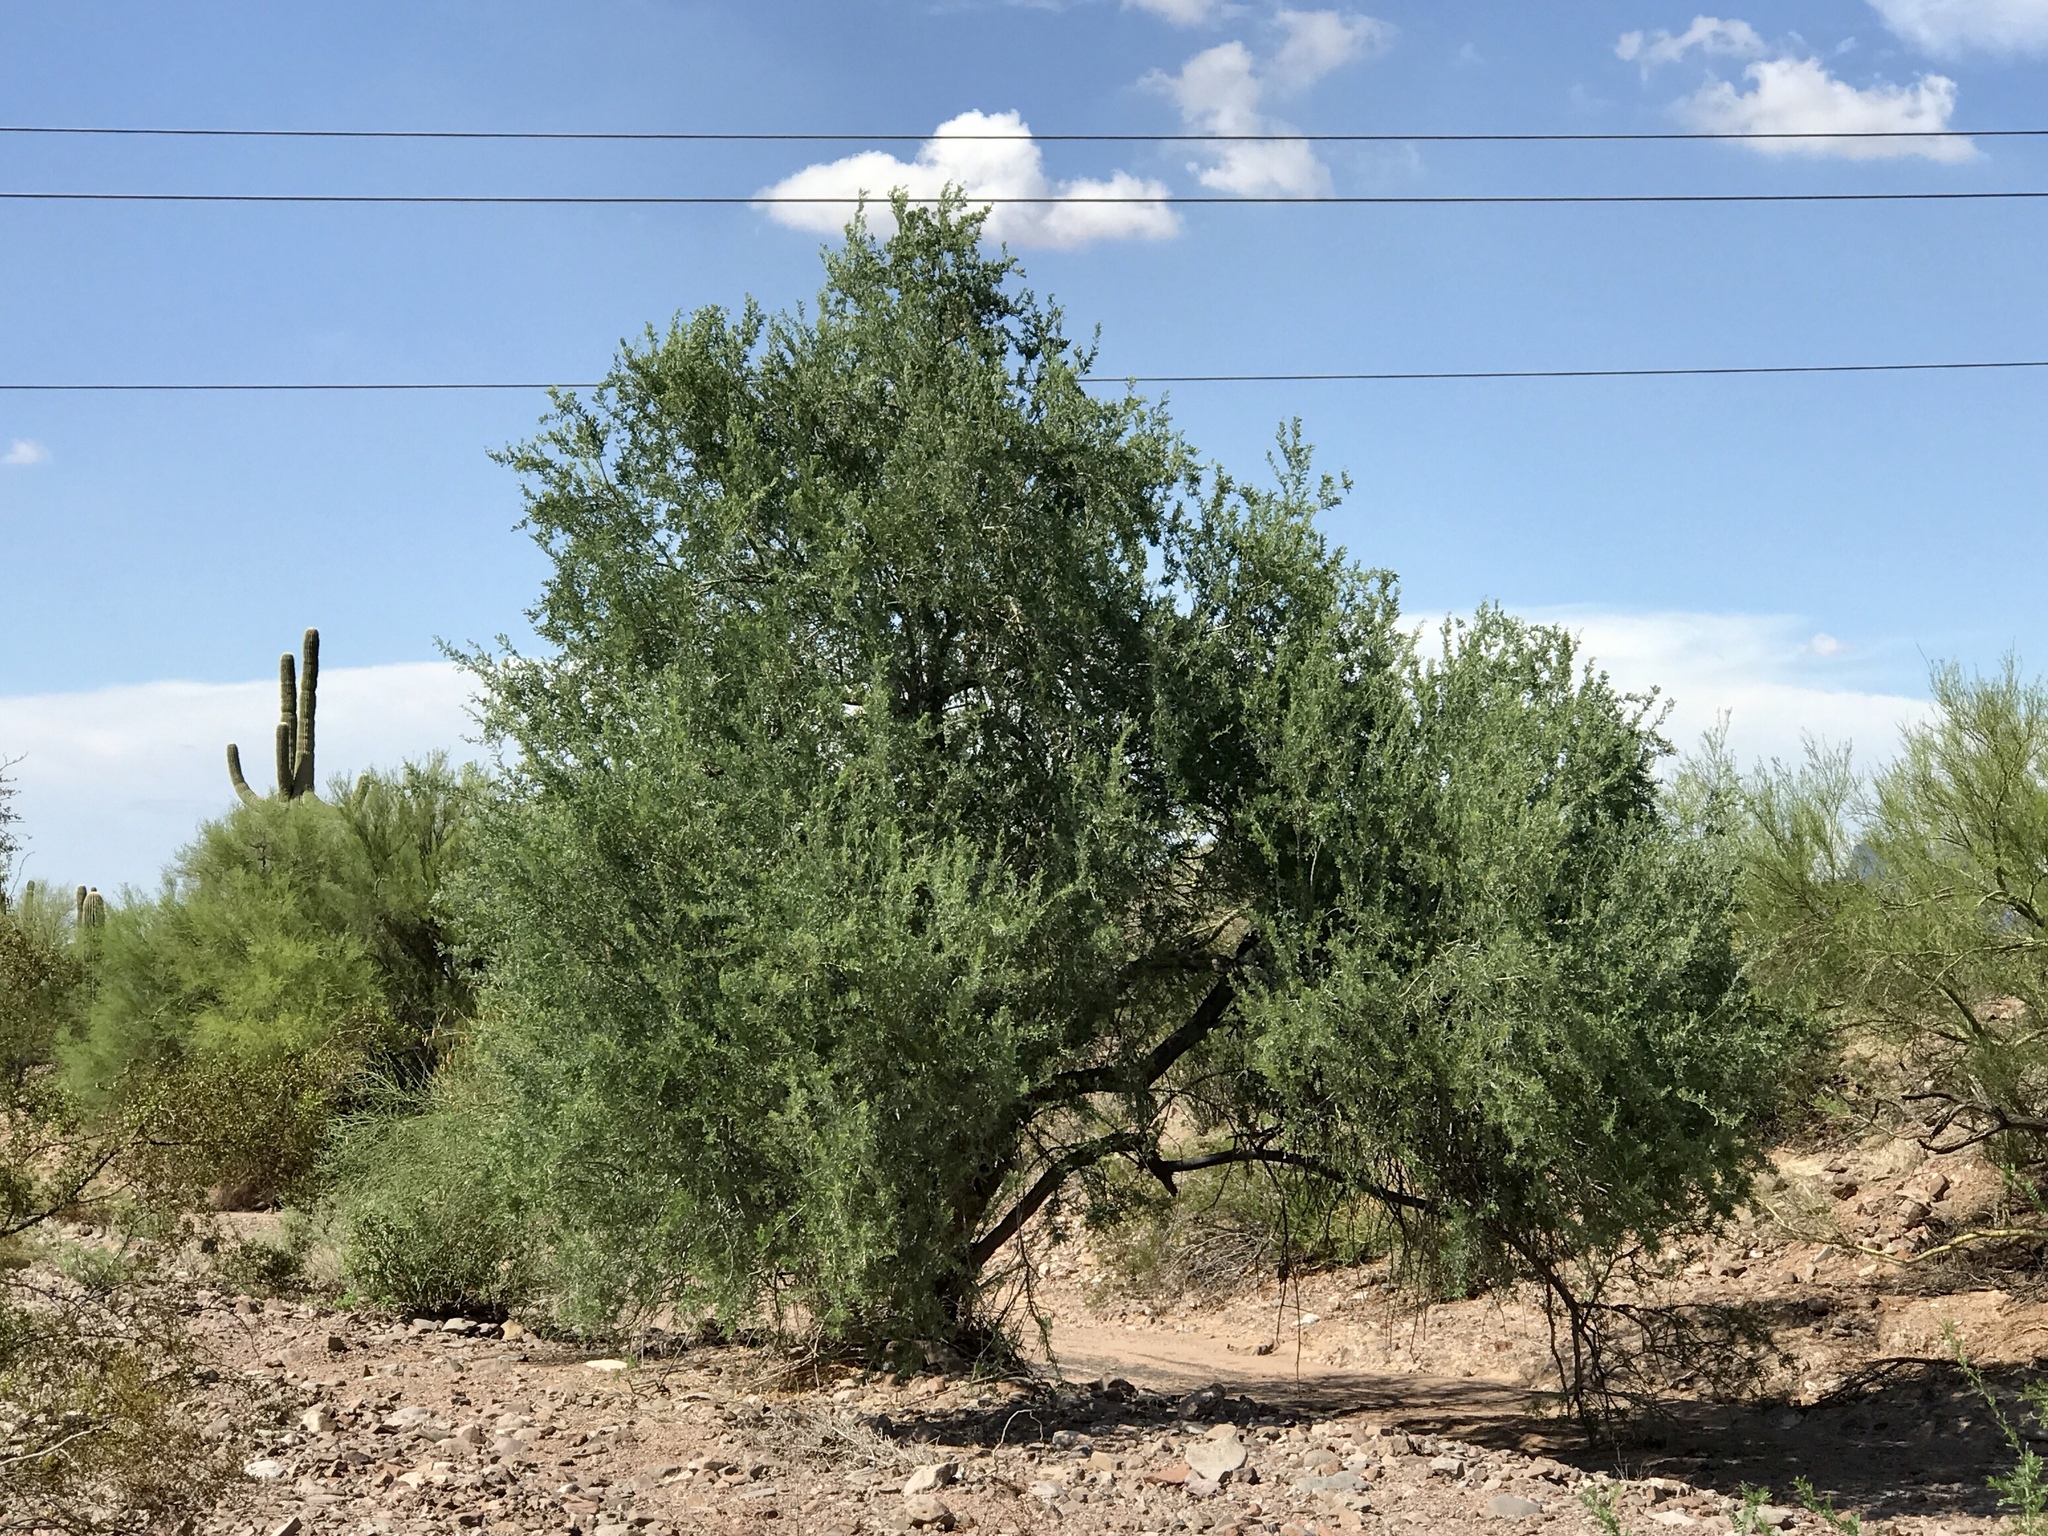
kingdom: Plantae
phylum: Tracheophyta
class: Magnoliopsida
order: Fabales
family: Fabaceae
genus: Olneya
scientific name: Olneya tesota
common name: Desert ironwood
